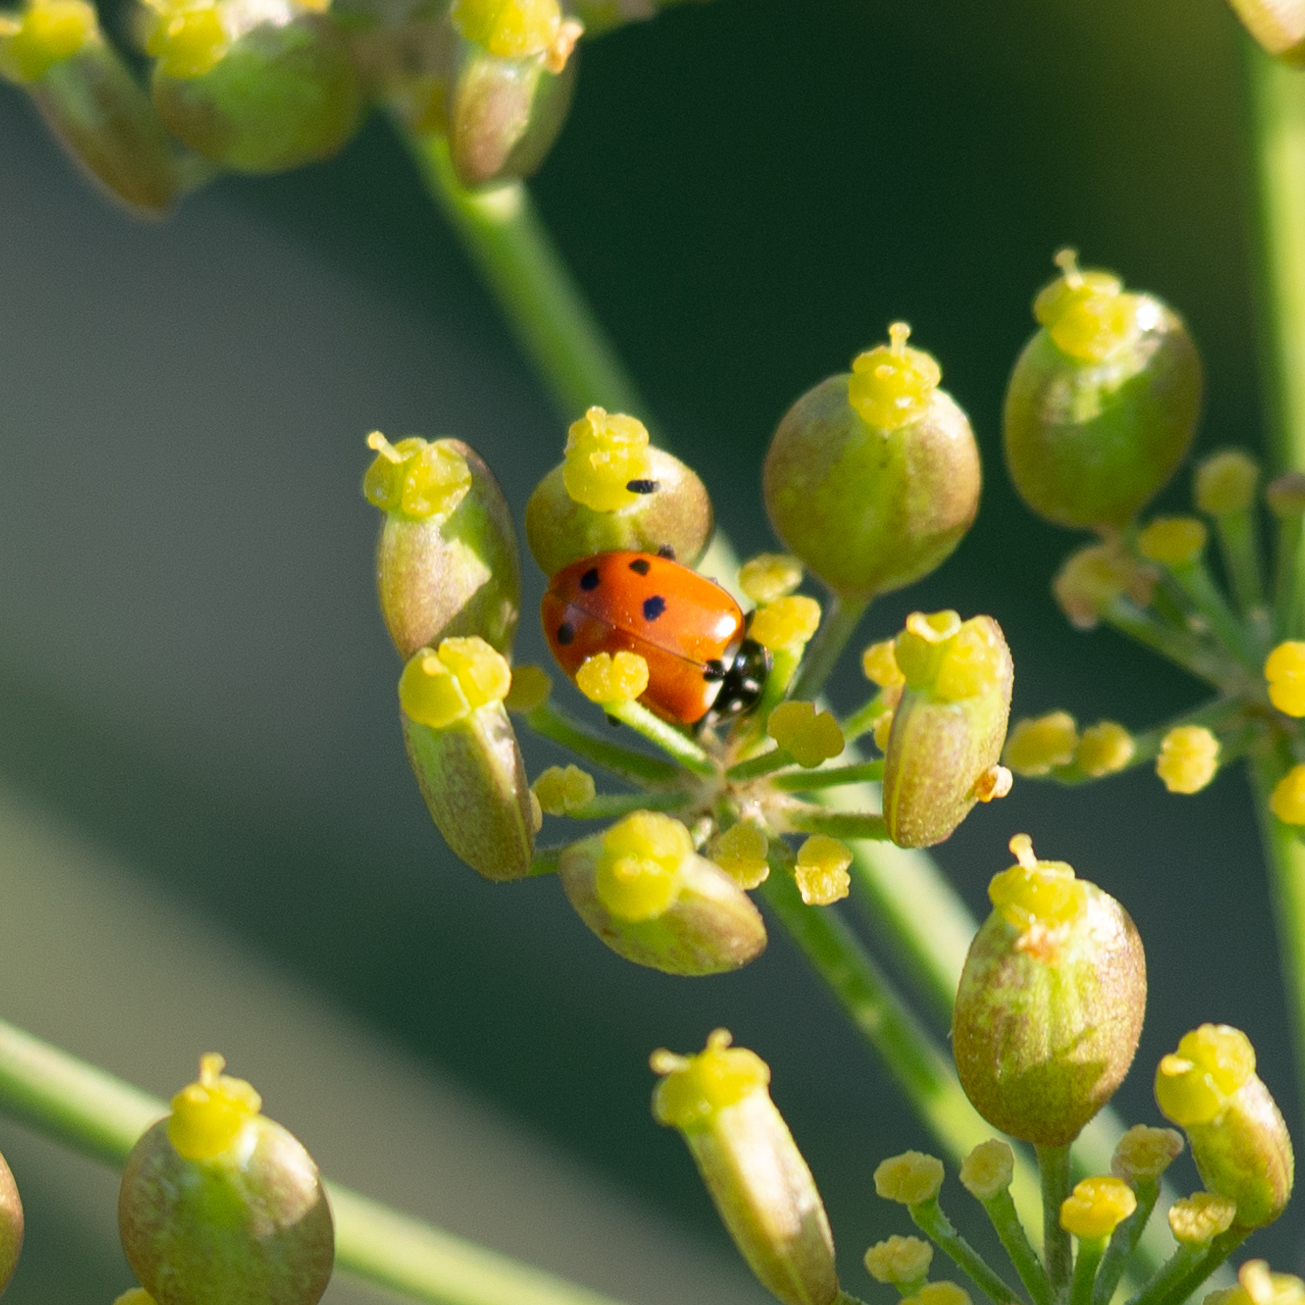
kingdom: Animalia
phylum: Arthropoda
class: Insecta
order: Coleoptera
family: Coccinellidae
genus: Hippodamia
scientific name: Hippodamia variegata
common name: Ladybird beetle
